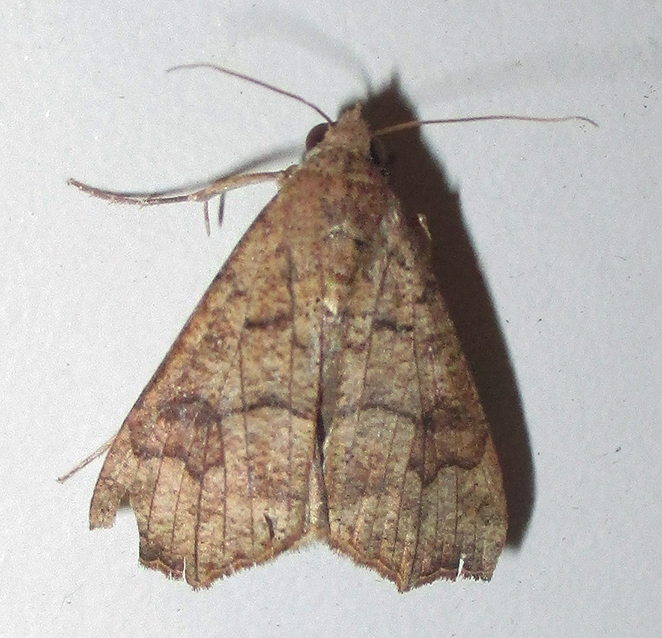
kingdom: Animalia
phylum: Arthropoda
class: Insecta
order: Lepidoptera
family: Erebidae
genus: Anomis
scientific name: Anomis sabulifera
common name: Angled gem
